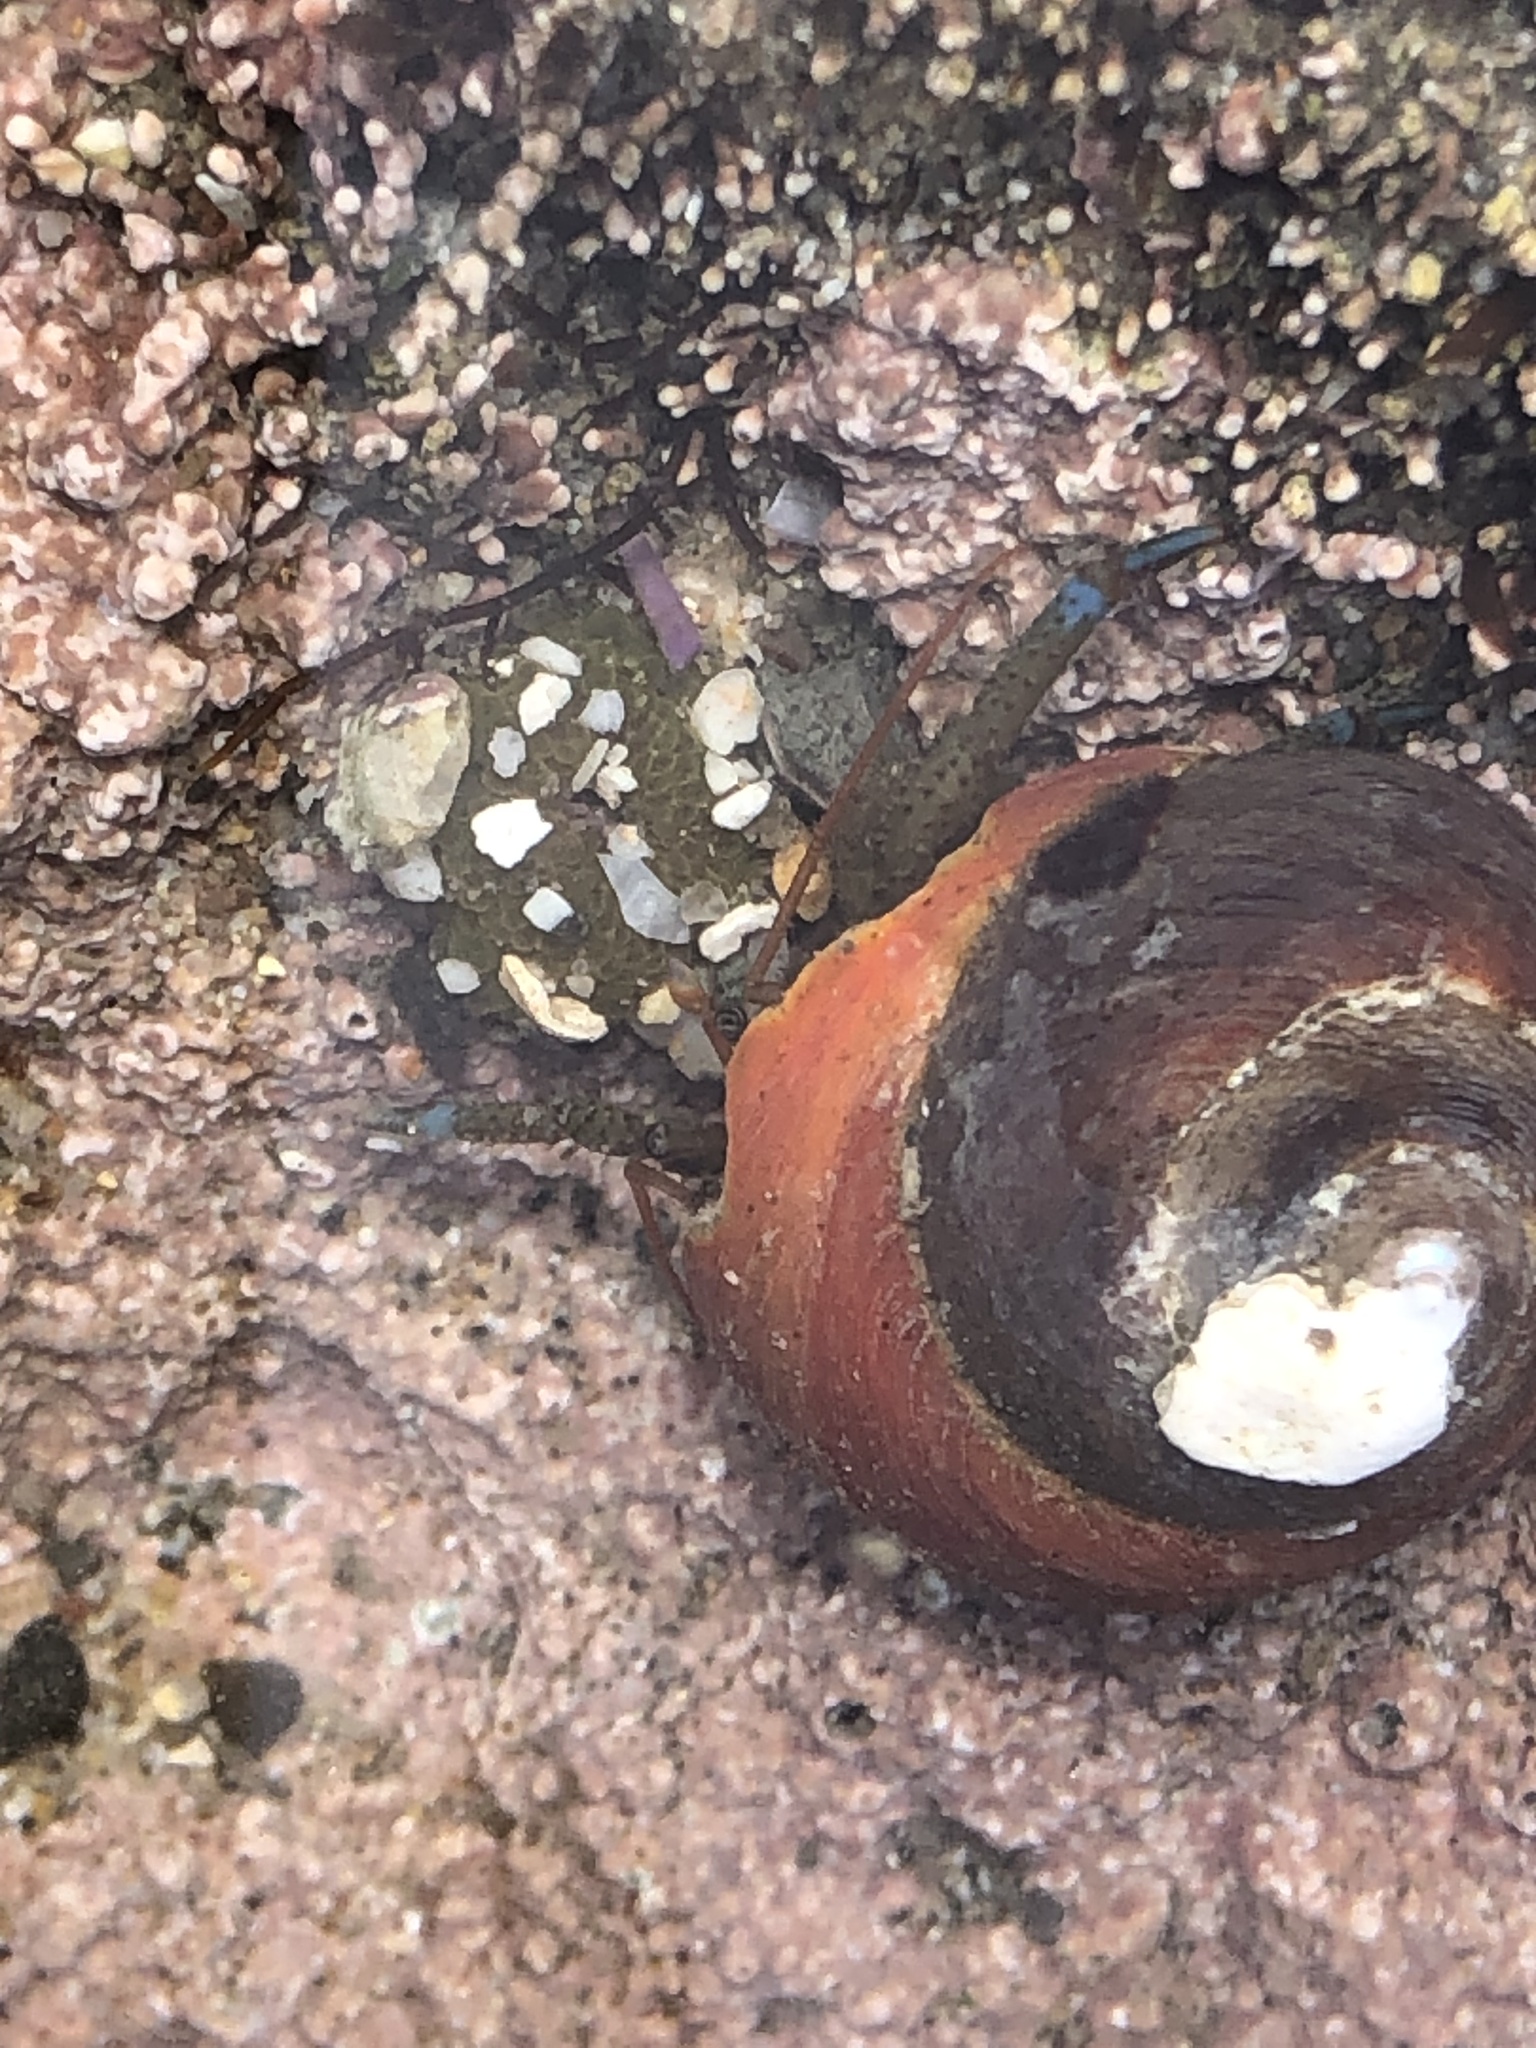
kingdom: Animalia
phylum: Arthropoda
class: Malacostraca
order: Decapoda
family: Paguridae
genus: Pagurus
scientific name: Pagurus samuelis
